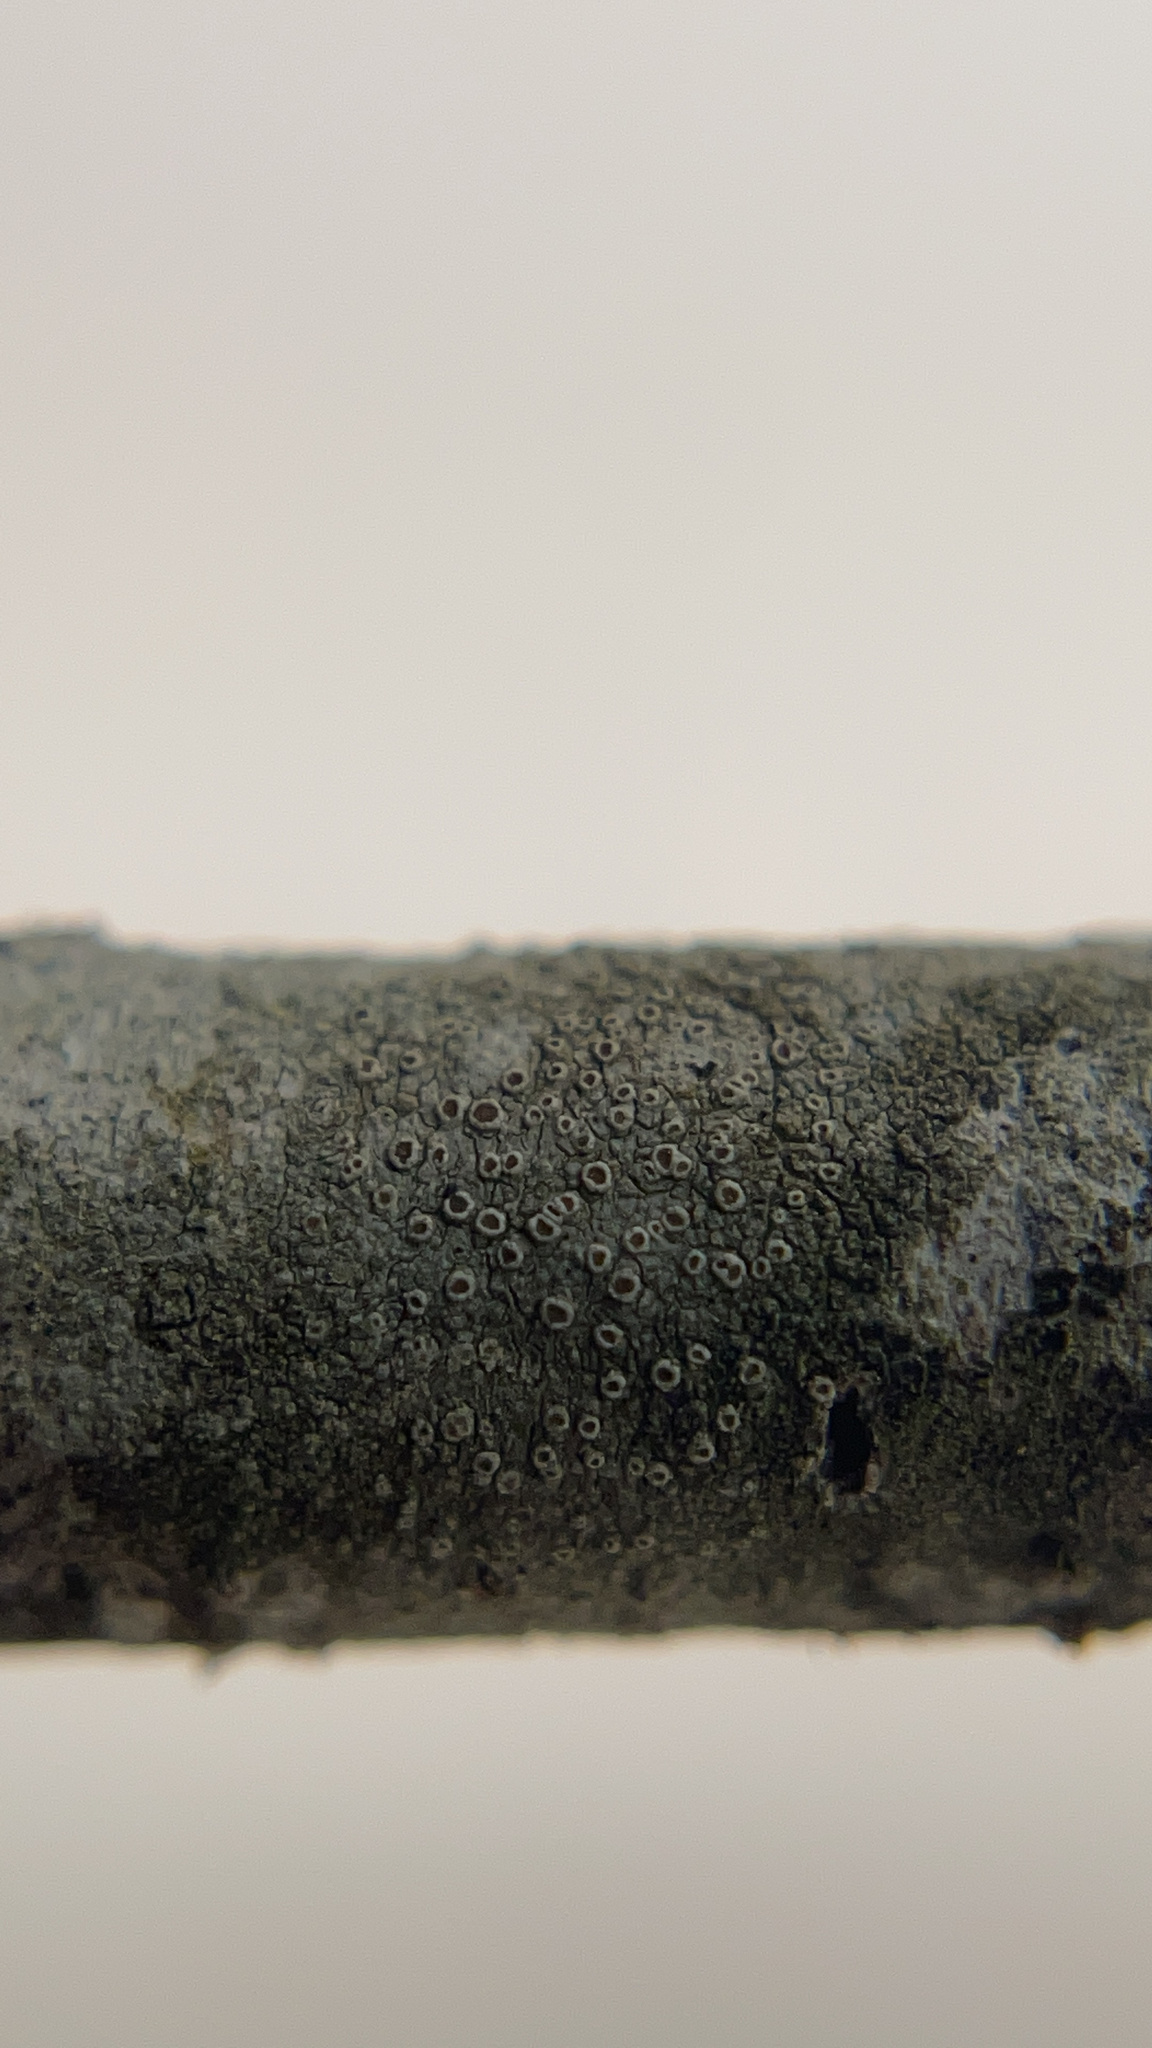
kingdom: Fungi
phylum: Ascomycota
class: Lecanoromycetes
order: Lecanorales
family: Lecanoraceae
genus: Lecanora
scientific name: Lecanora
